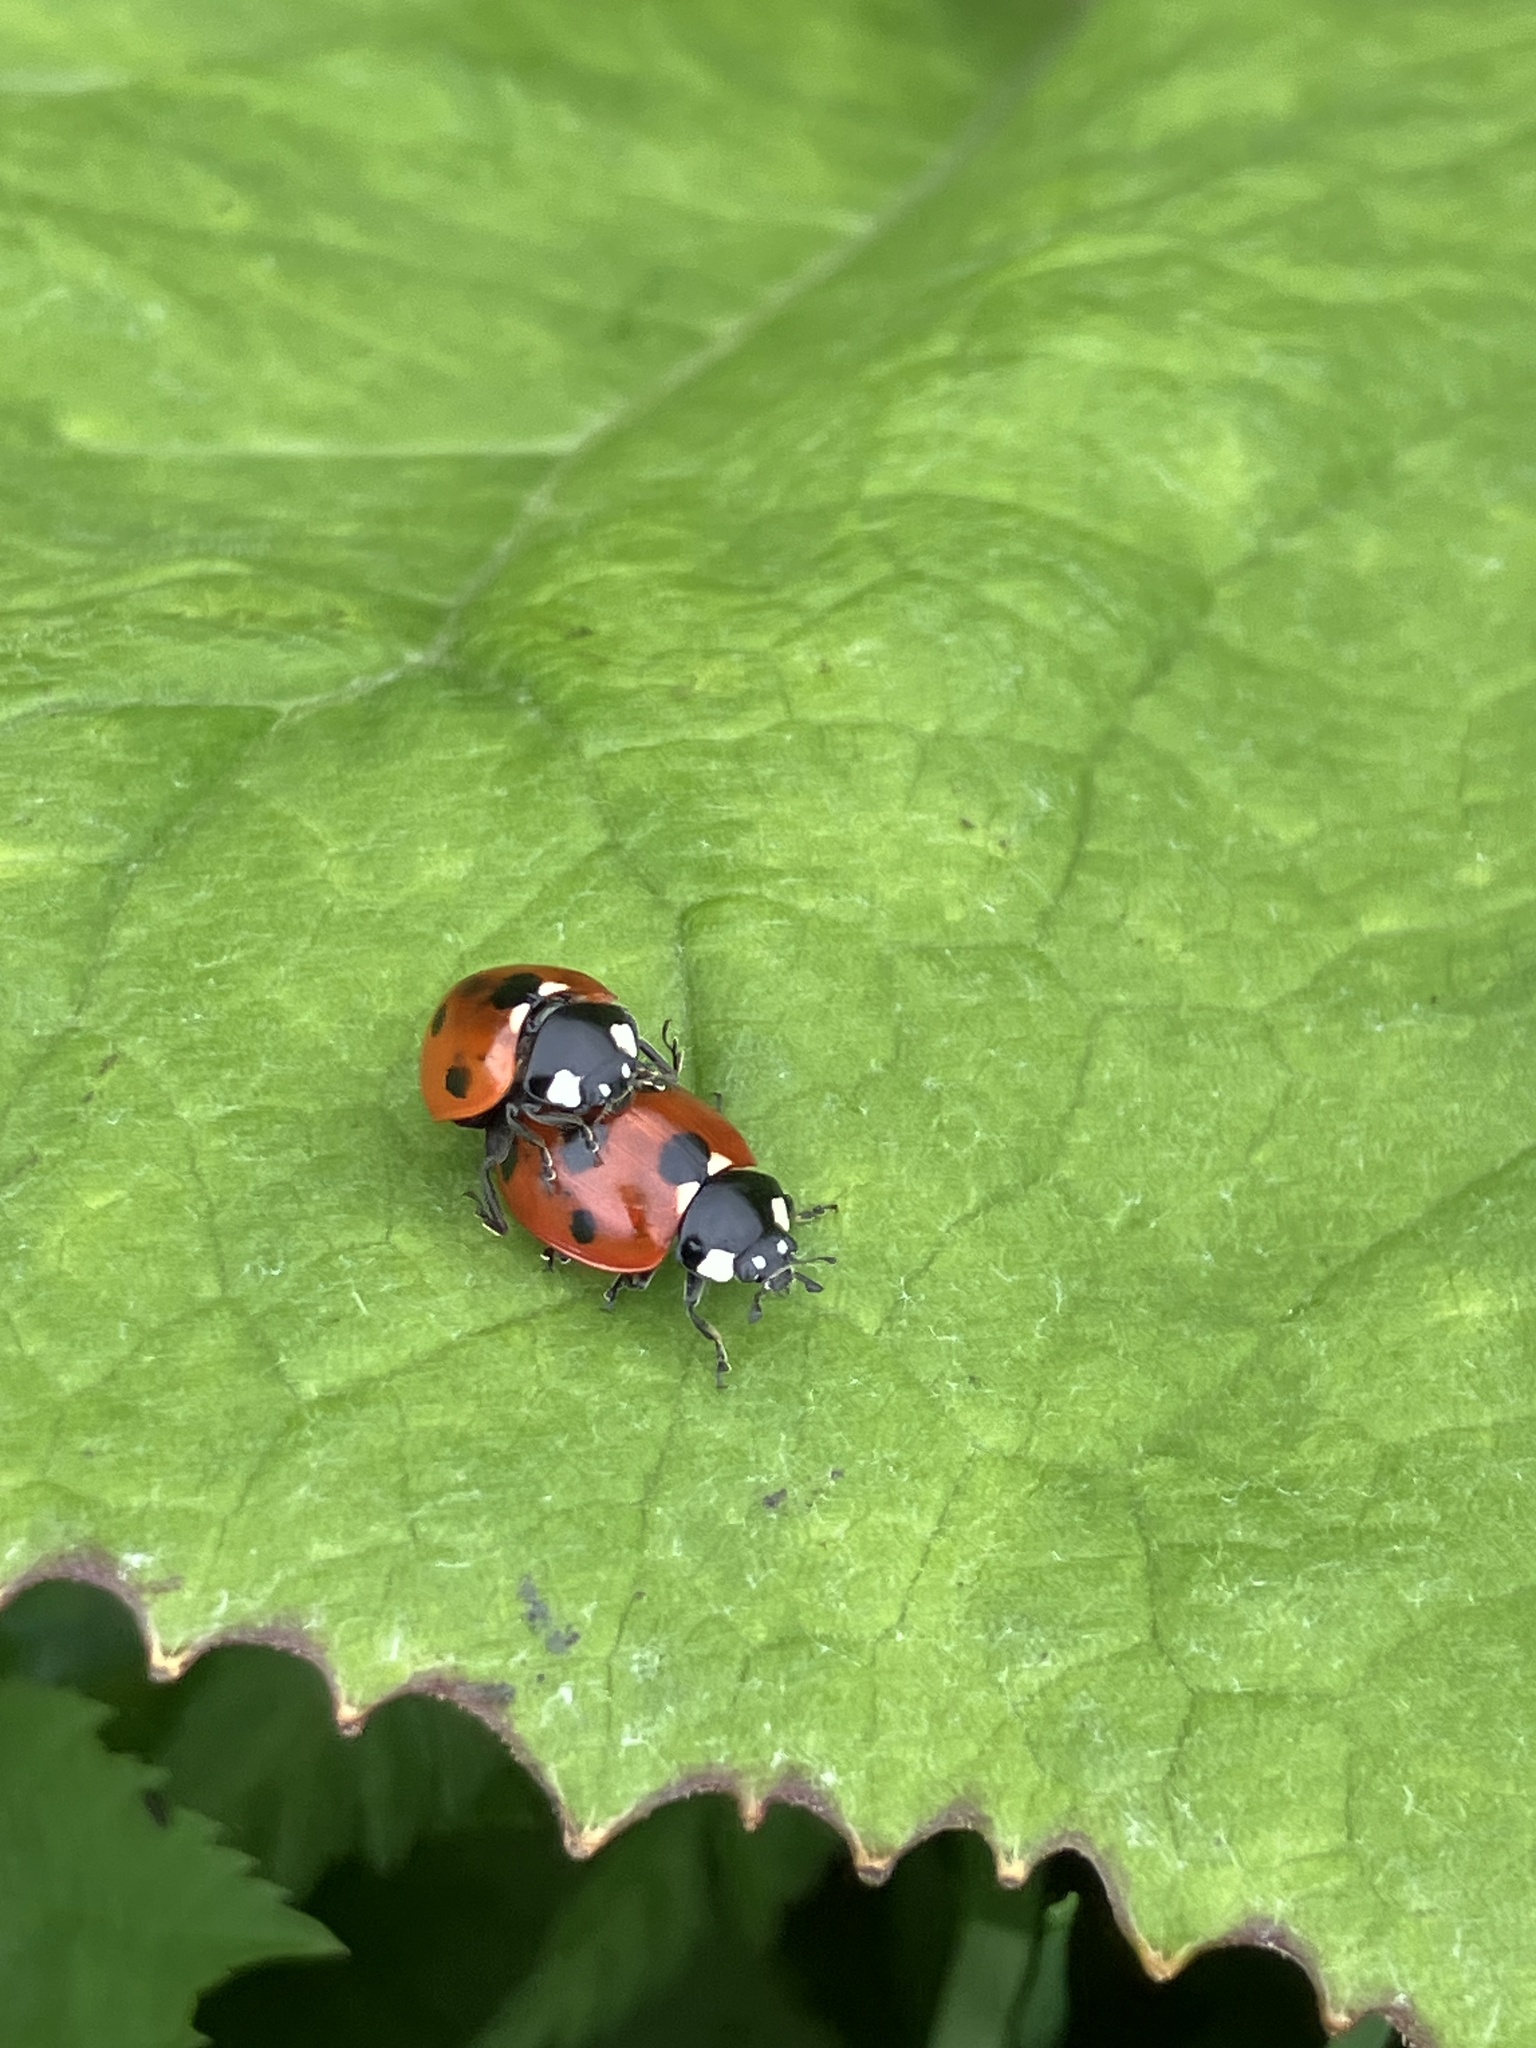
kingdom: Animalia
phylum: Arthropoda
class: Insecta
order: Coleoptera
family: Coccinellidae
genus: Coccinella
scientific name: Coccinella septempunctata
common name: Sevenspotted lady beetle
